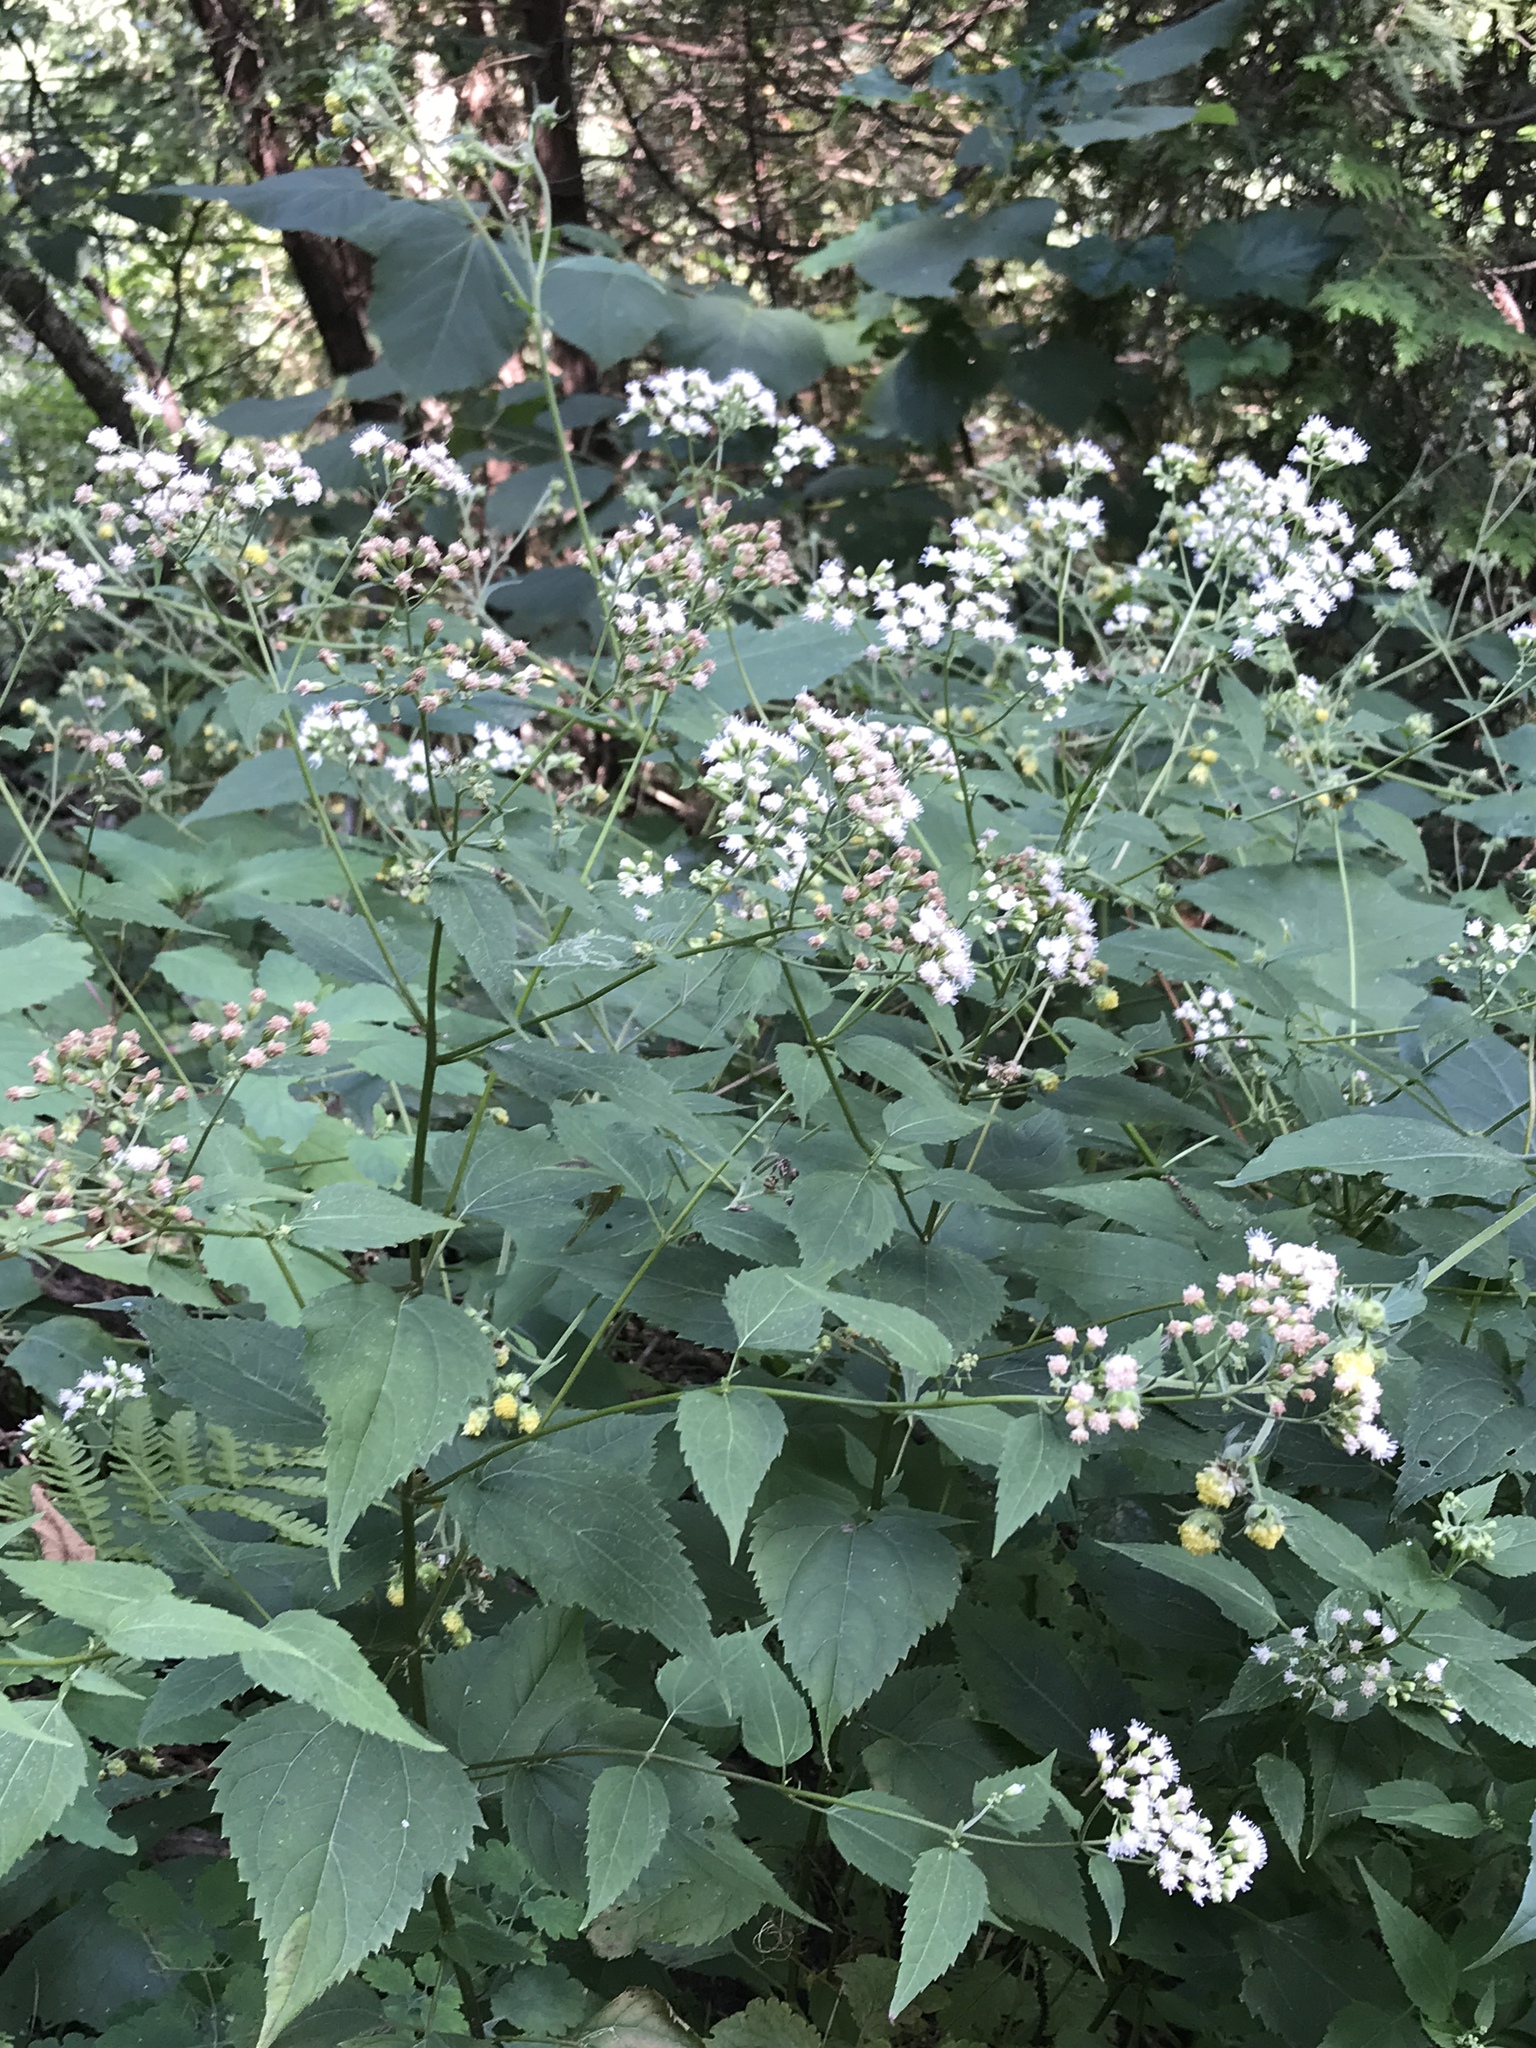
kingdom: Plantae
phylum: Tracheophyta
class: Magnoliopsida
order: Asterales
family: Asteraceae
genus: Ageratina
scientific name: Ageratina altissima
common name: White snakeroot
